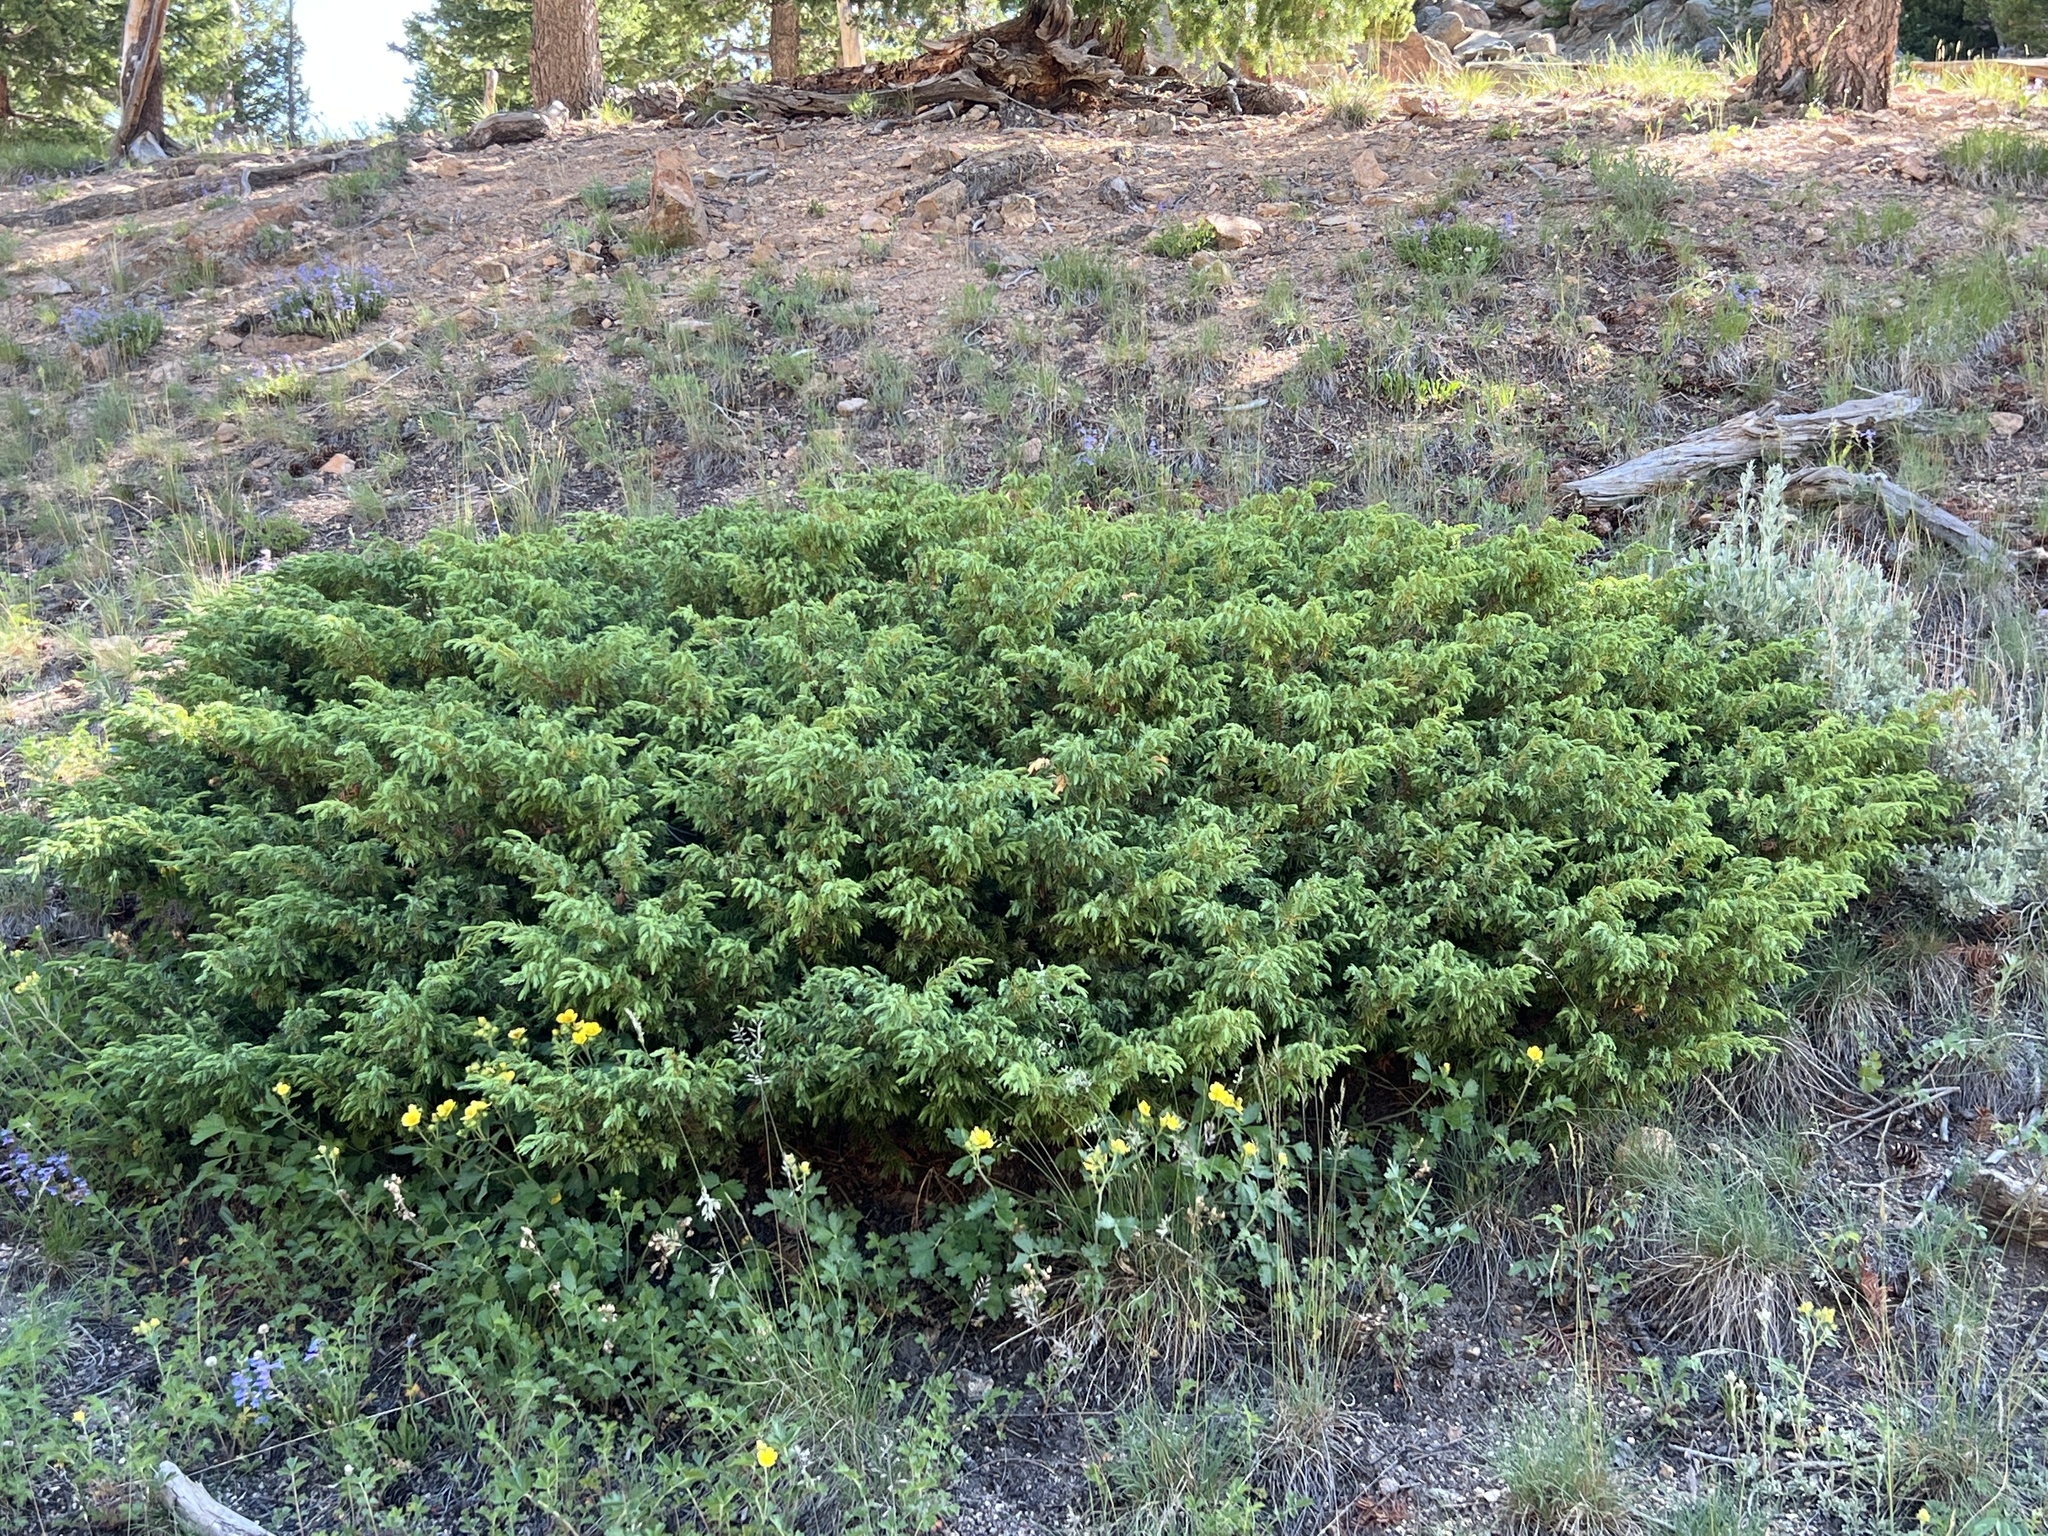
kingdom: Plantae
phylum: Tracheophyta
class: Pinopsida
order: Pinales
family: Cupressaceae
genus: Juniperus
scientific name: Juniperus communis
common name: Common juniper
